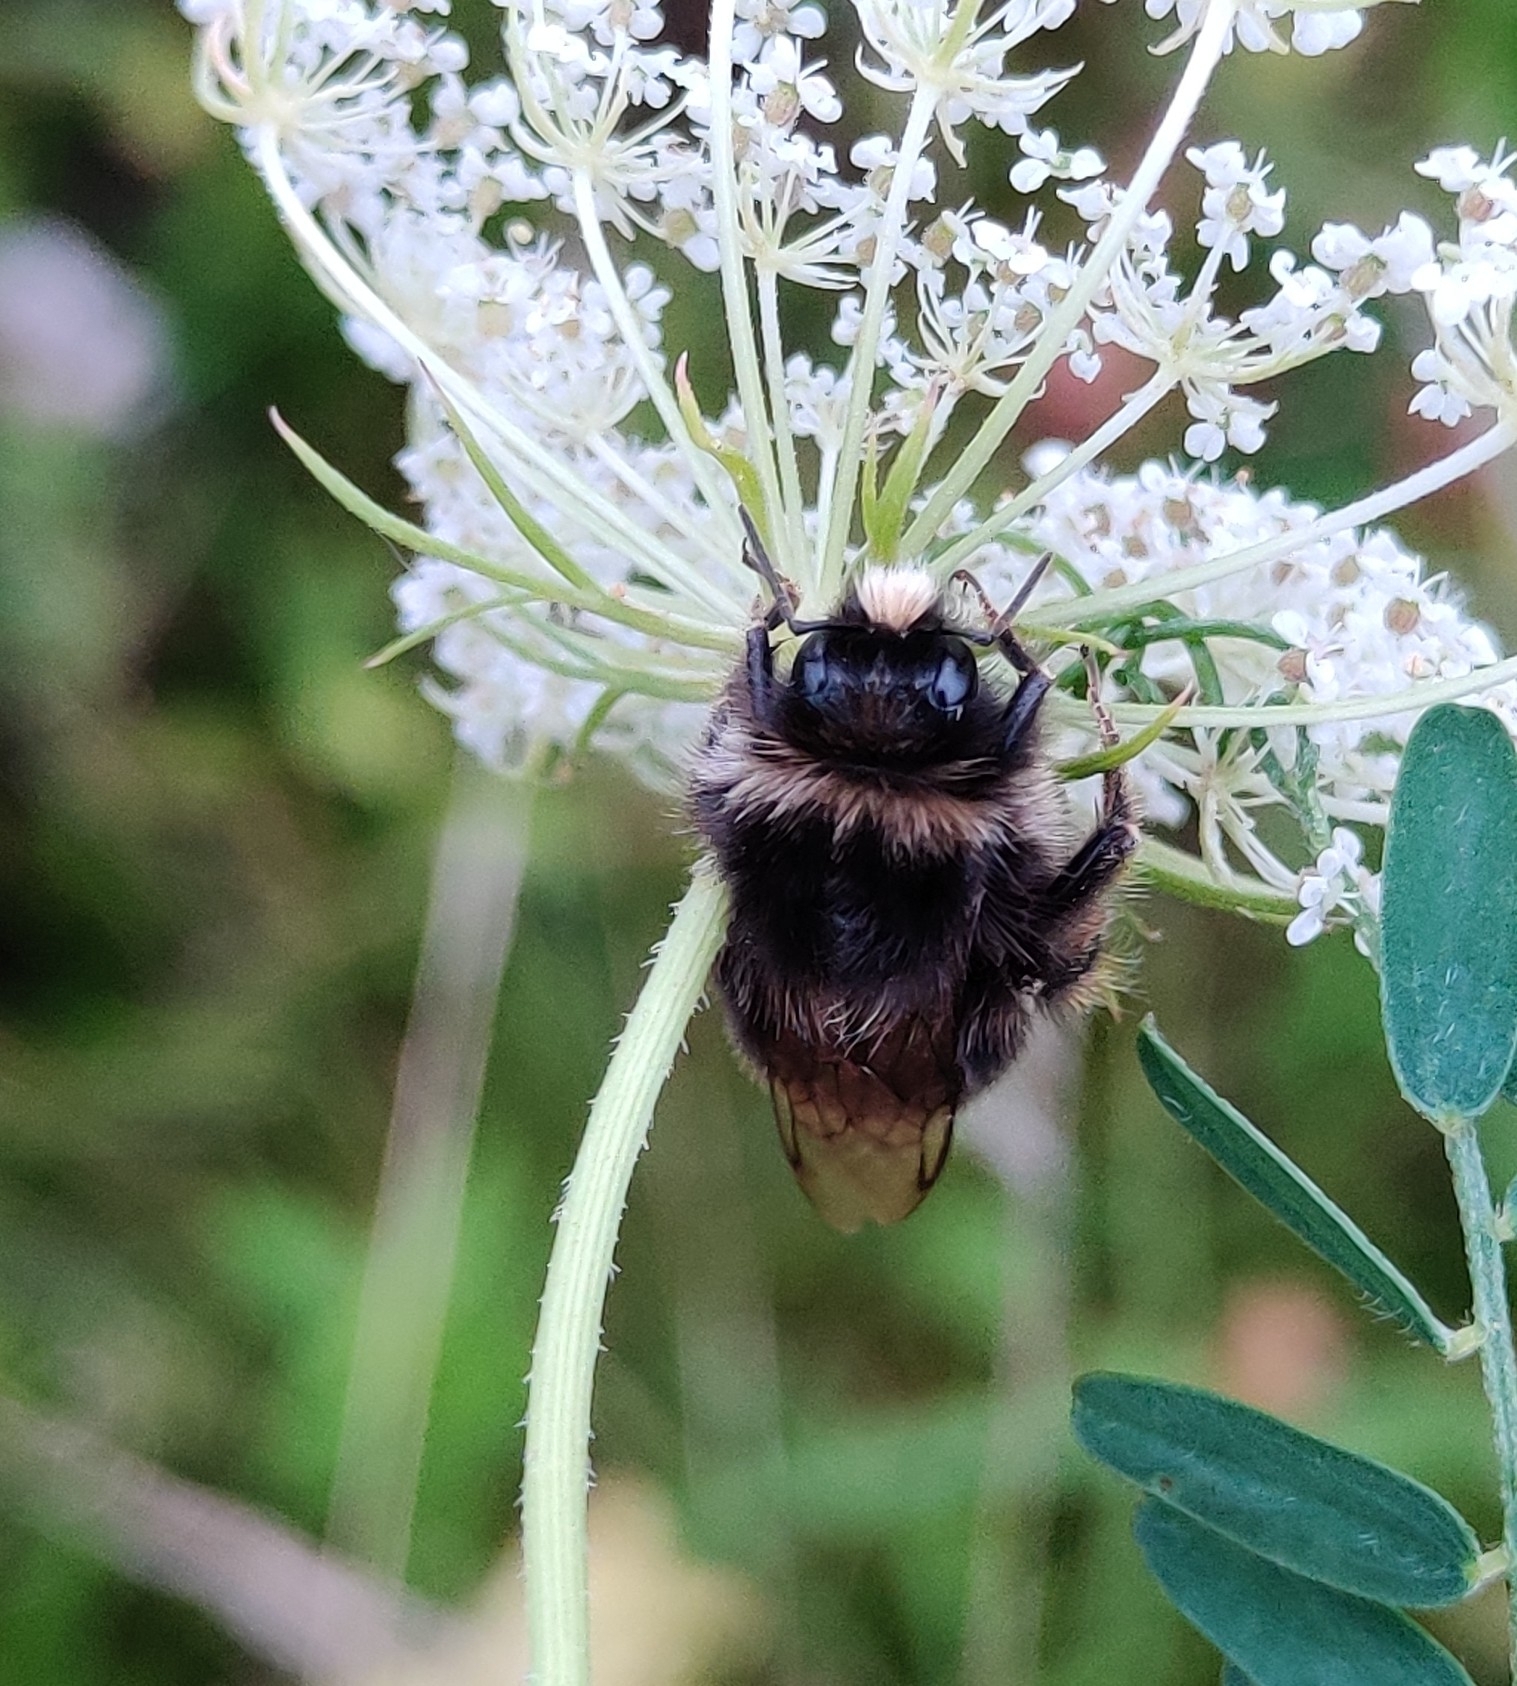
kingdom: Animalia
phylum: Arthropoda
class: Insecta
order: Hymenoptera
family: Apidae
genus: Bombus
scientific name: Bombus lapidarius
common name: Large red-tailed humble-bee
